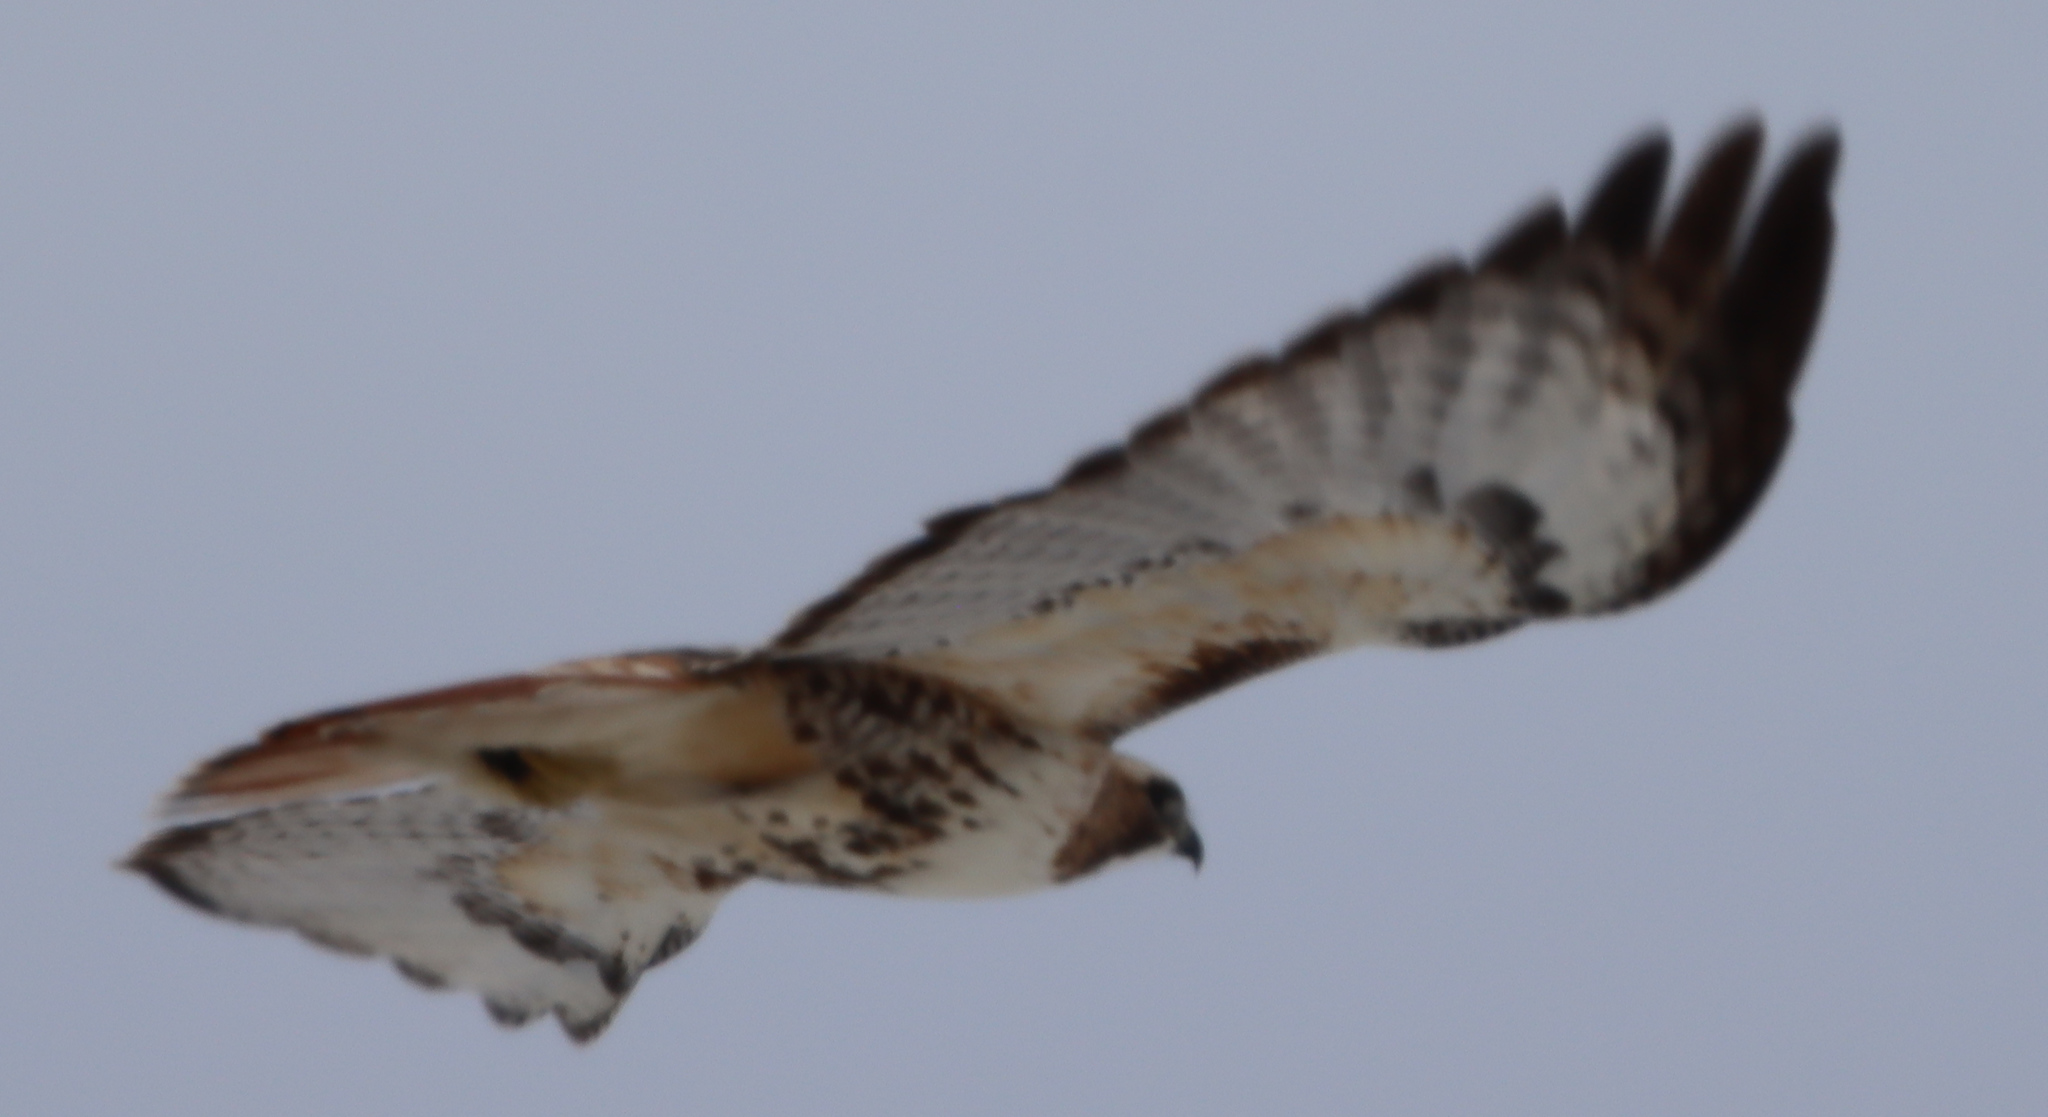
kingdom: Animalia
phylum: Chordata
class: Aves
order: Accipitriformes
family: Accipitridae
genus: Buteo
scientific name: Buteo jamaicensis
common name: Red-tailed hawk
